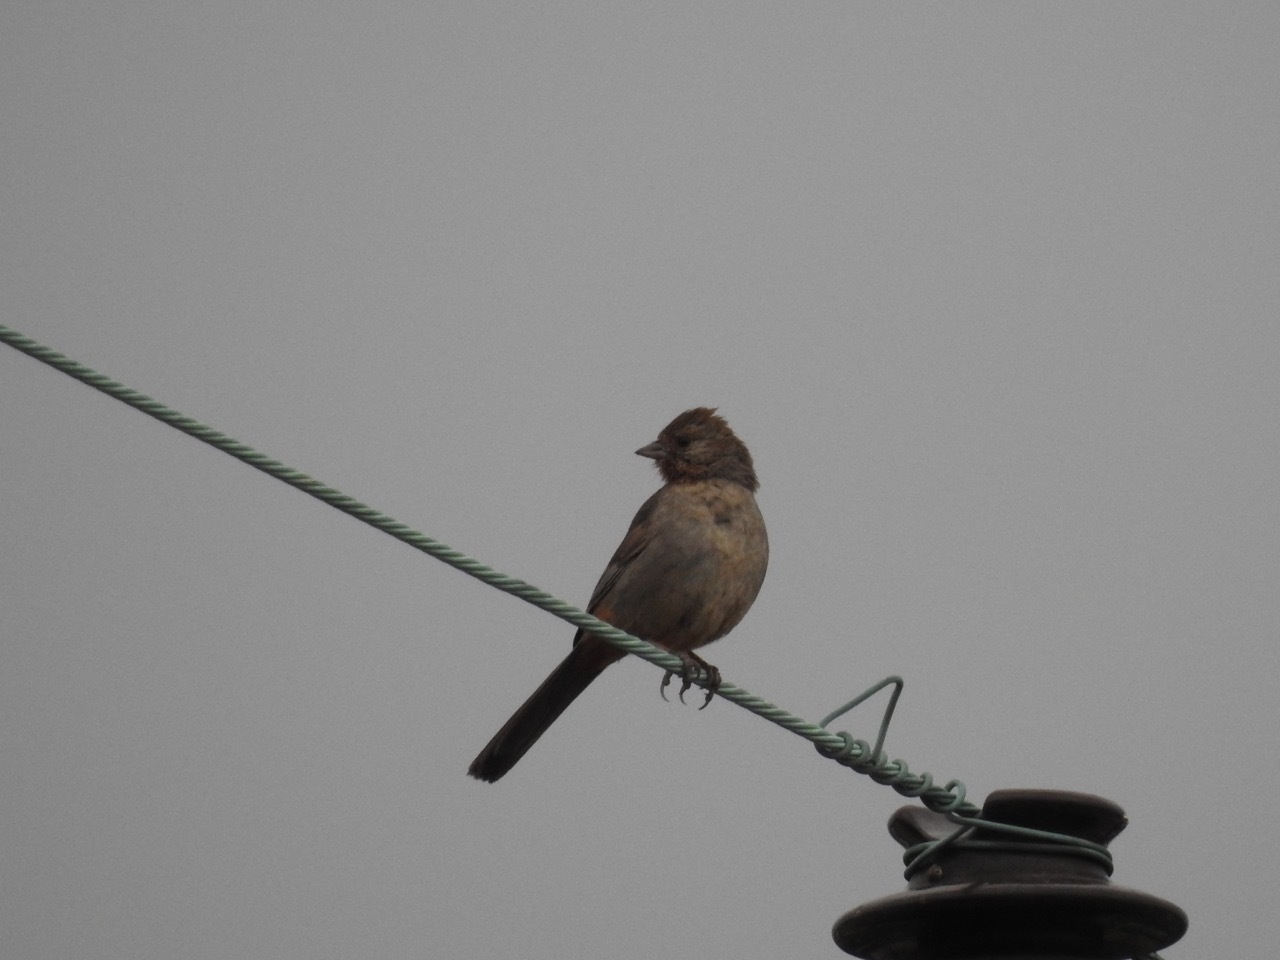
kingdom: Animalia
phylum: Chordata
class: Aves
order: Passeriformes
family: Passerellidae
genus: Melozone
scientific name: Melozone crissalis
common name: California towhee
